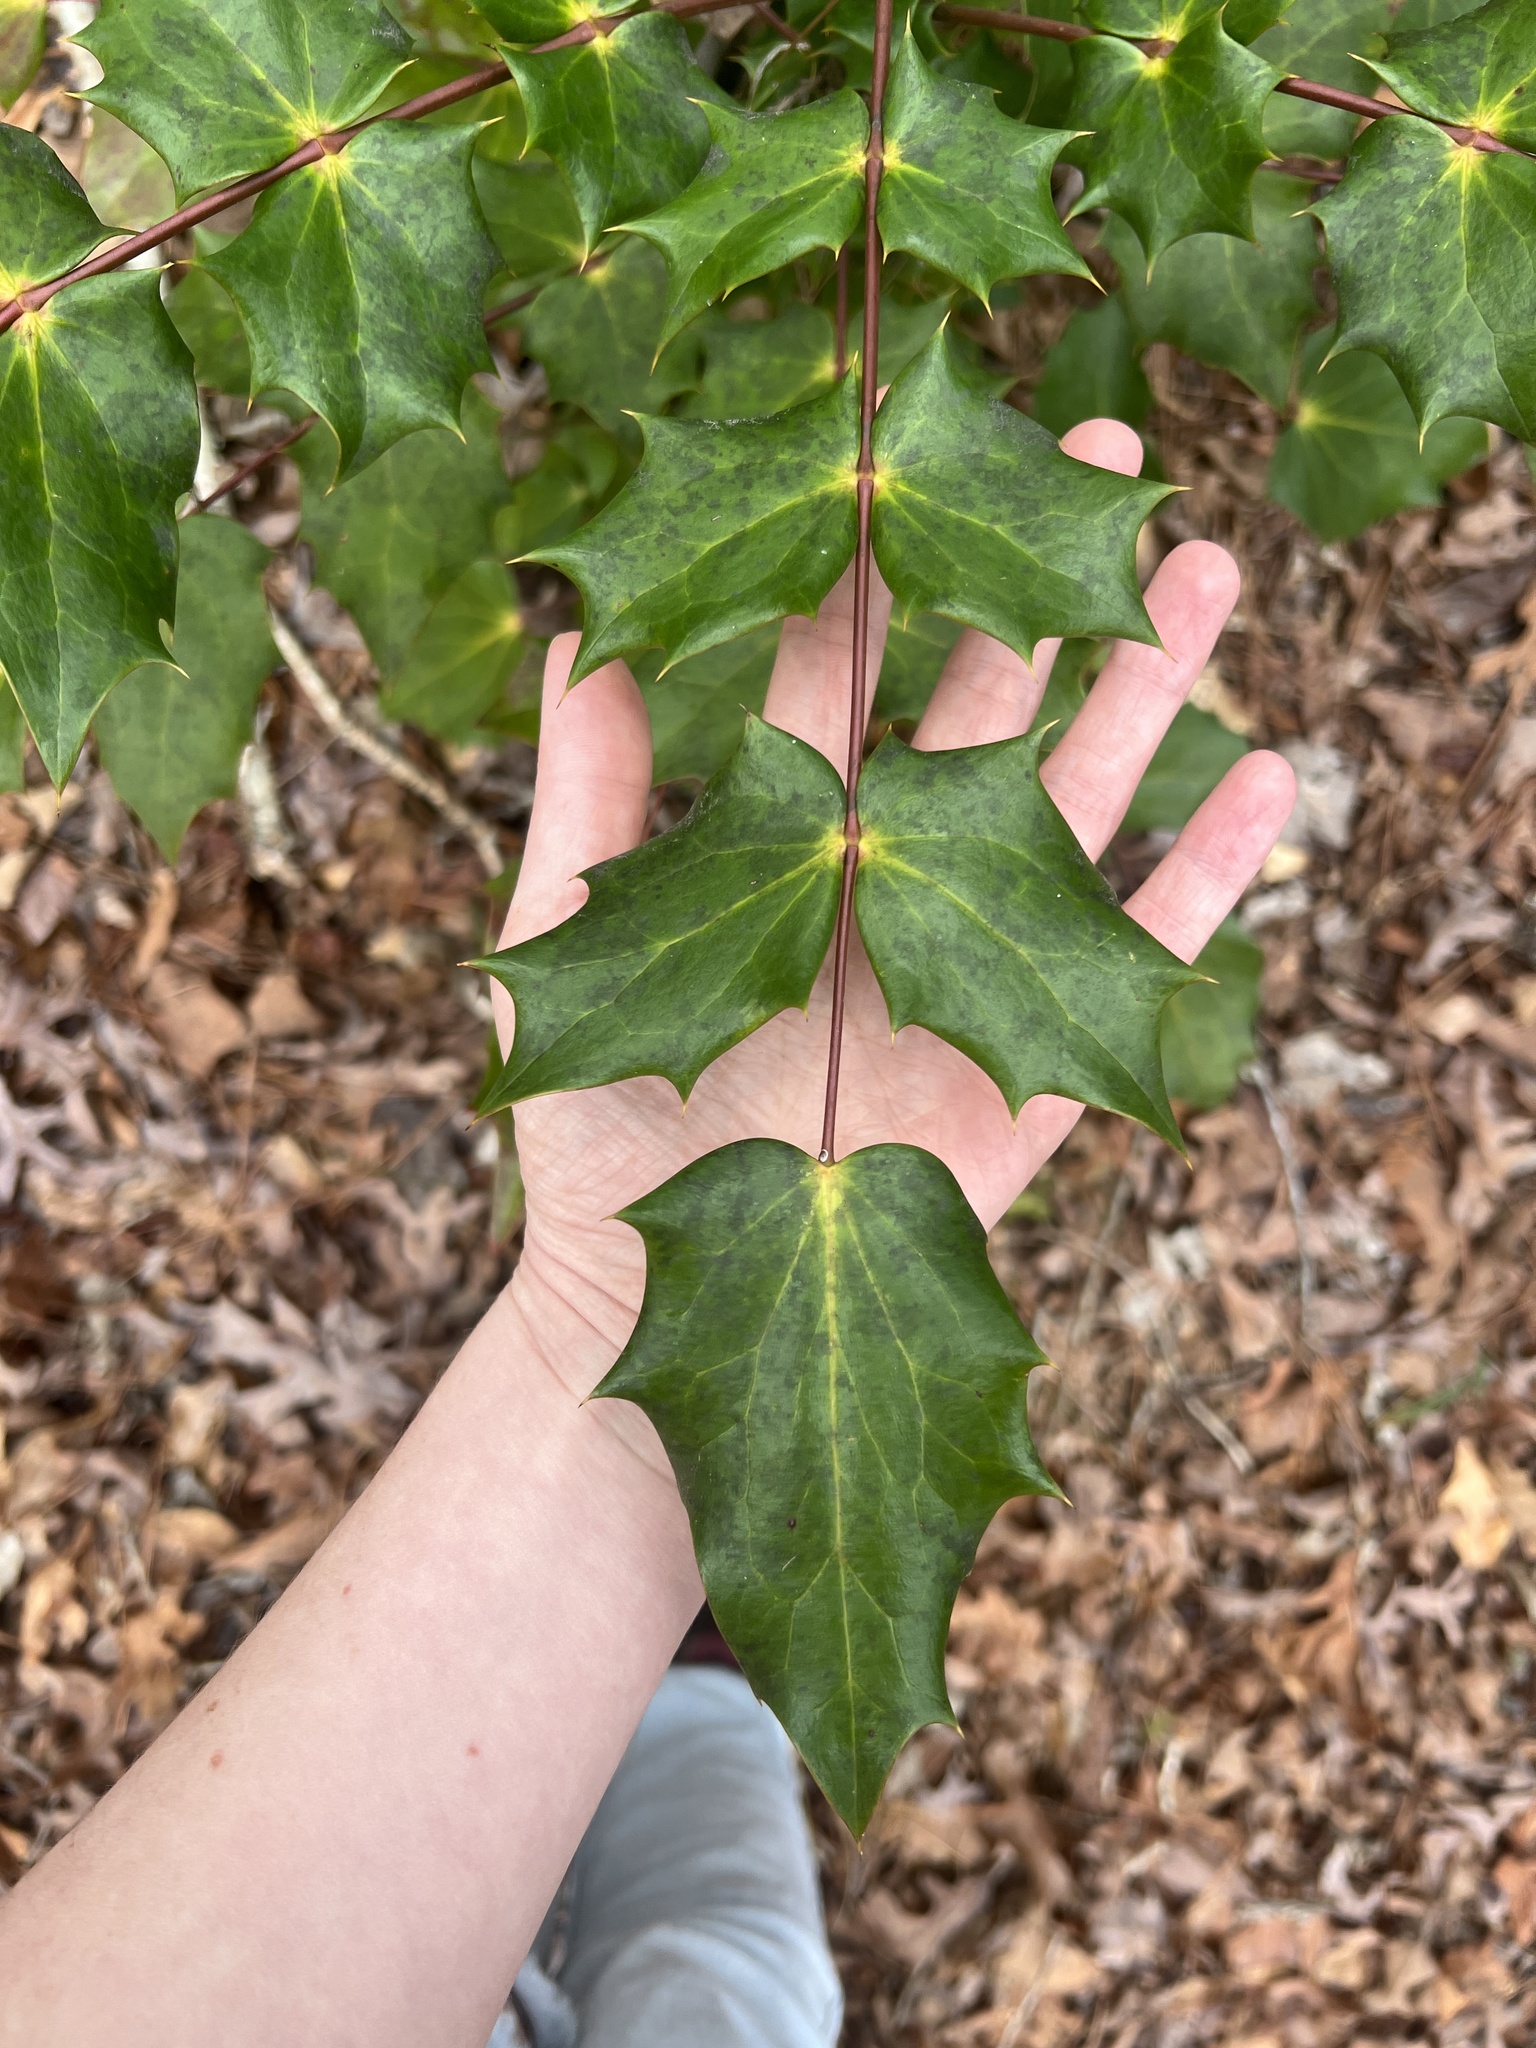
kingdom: Plantae
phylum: Tracheophyta
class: Magnoliopsida
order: Ranunculales
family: Berberidaceae
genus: Mahonia
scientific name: Mahonia bealei
